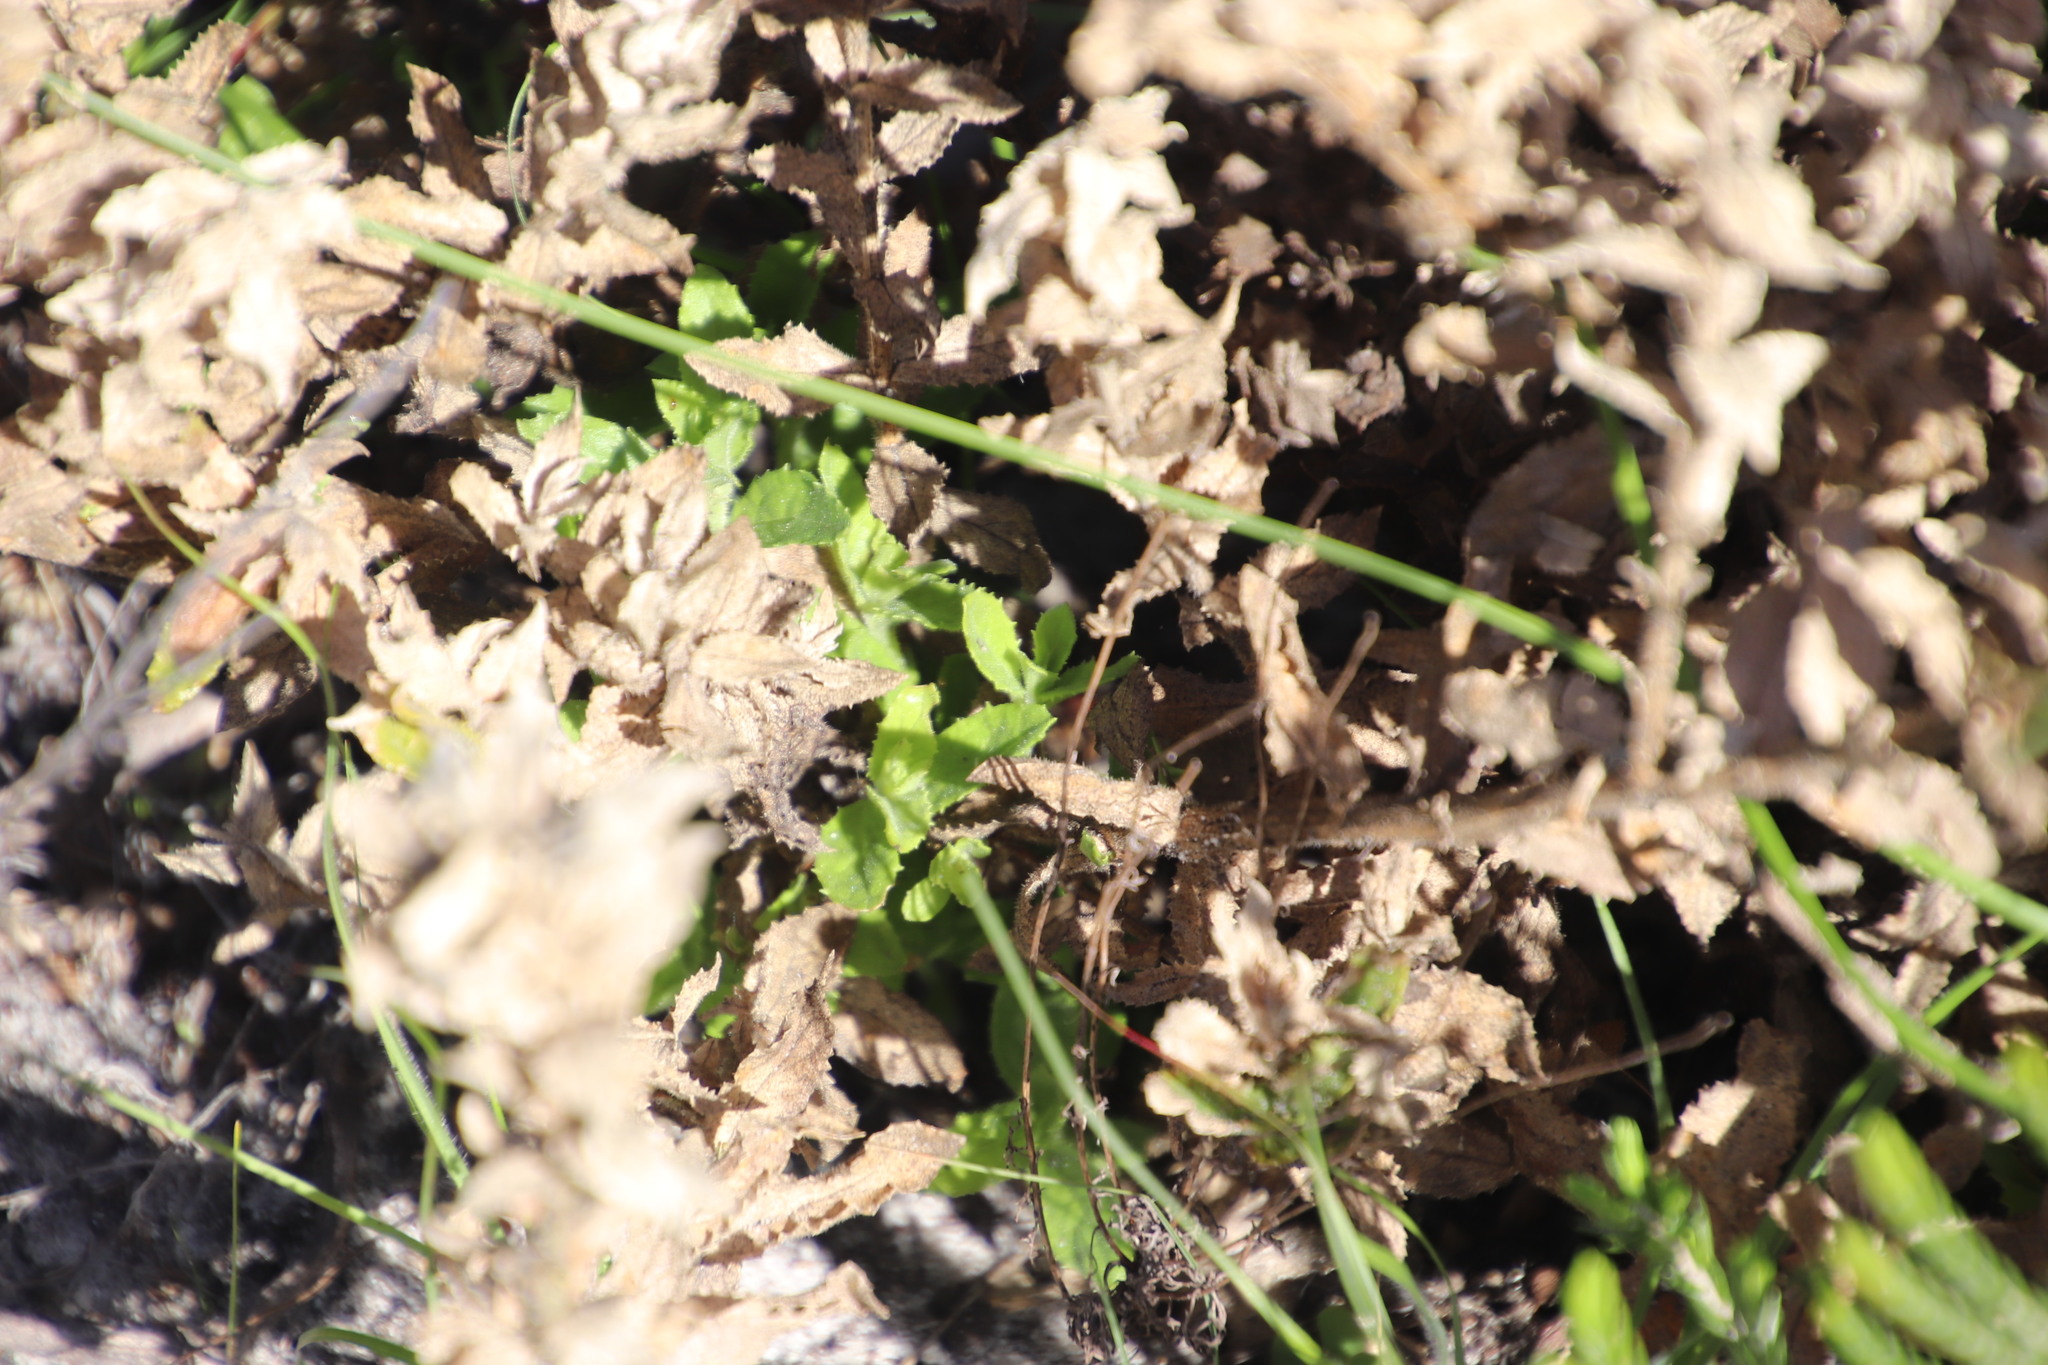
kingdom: Plantae
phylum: Tracheophyta
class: Magnoliopsida
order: Lamiales
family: Scrophulariaceae
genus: Oftia
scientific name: Oftia africana
